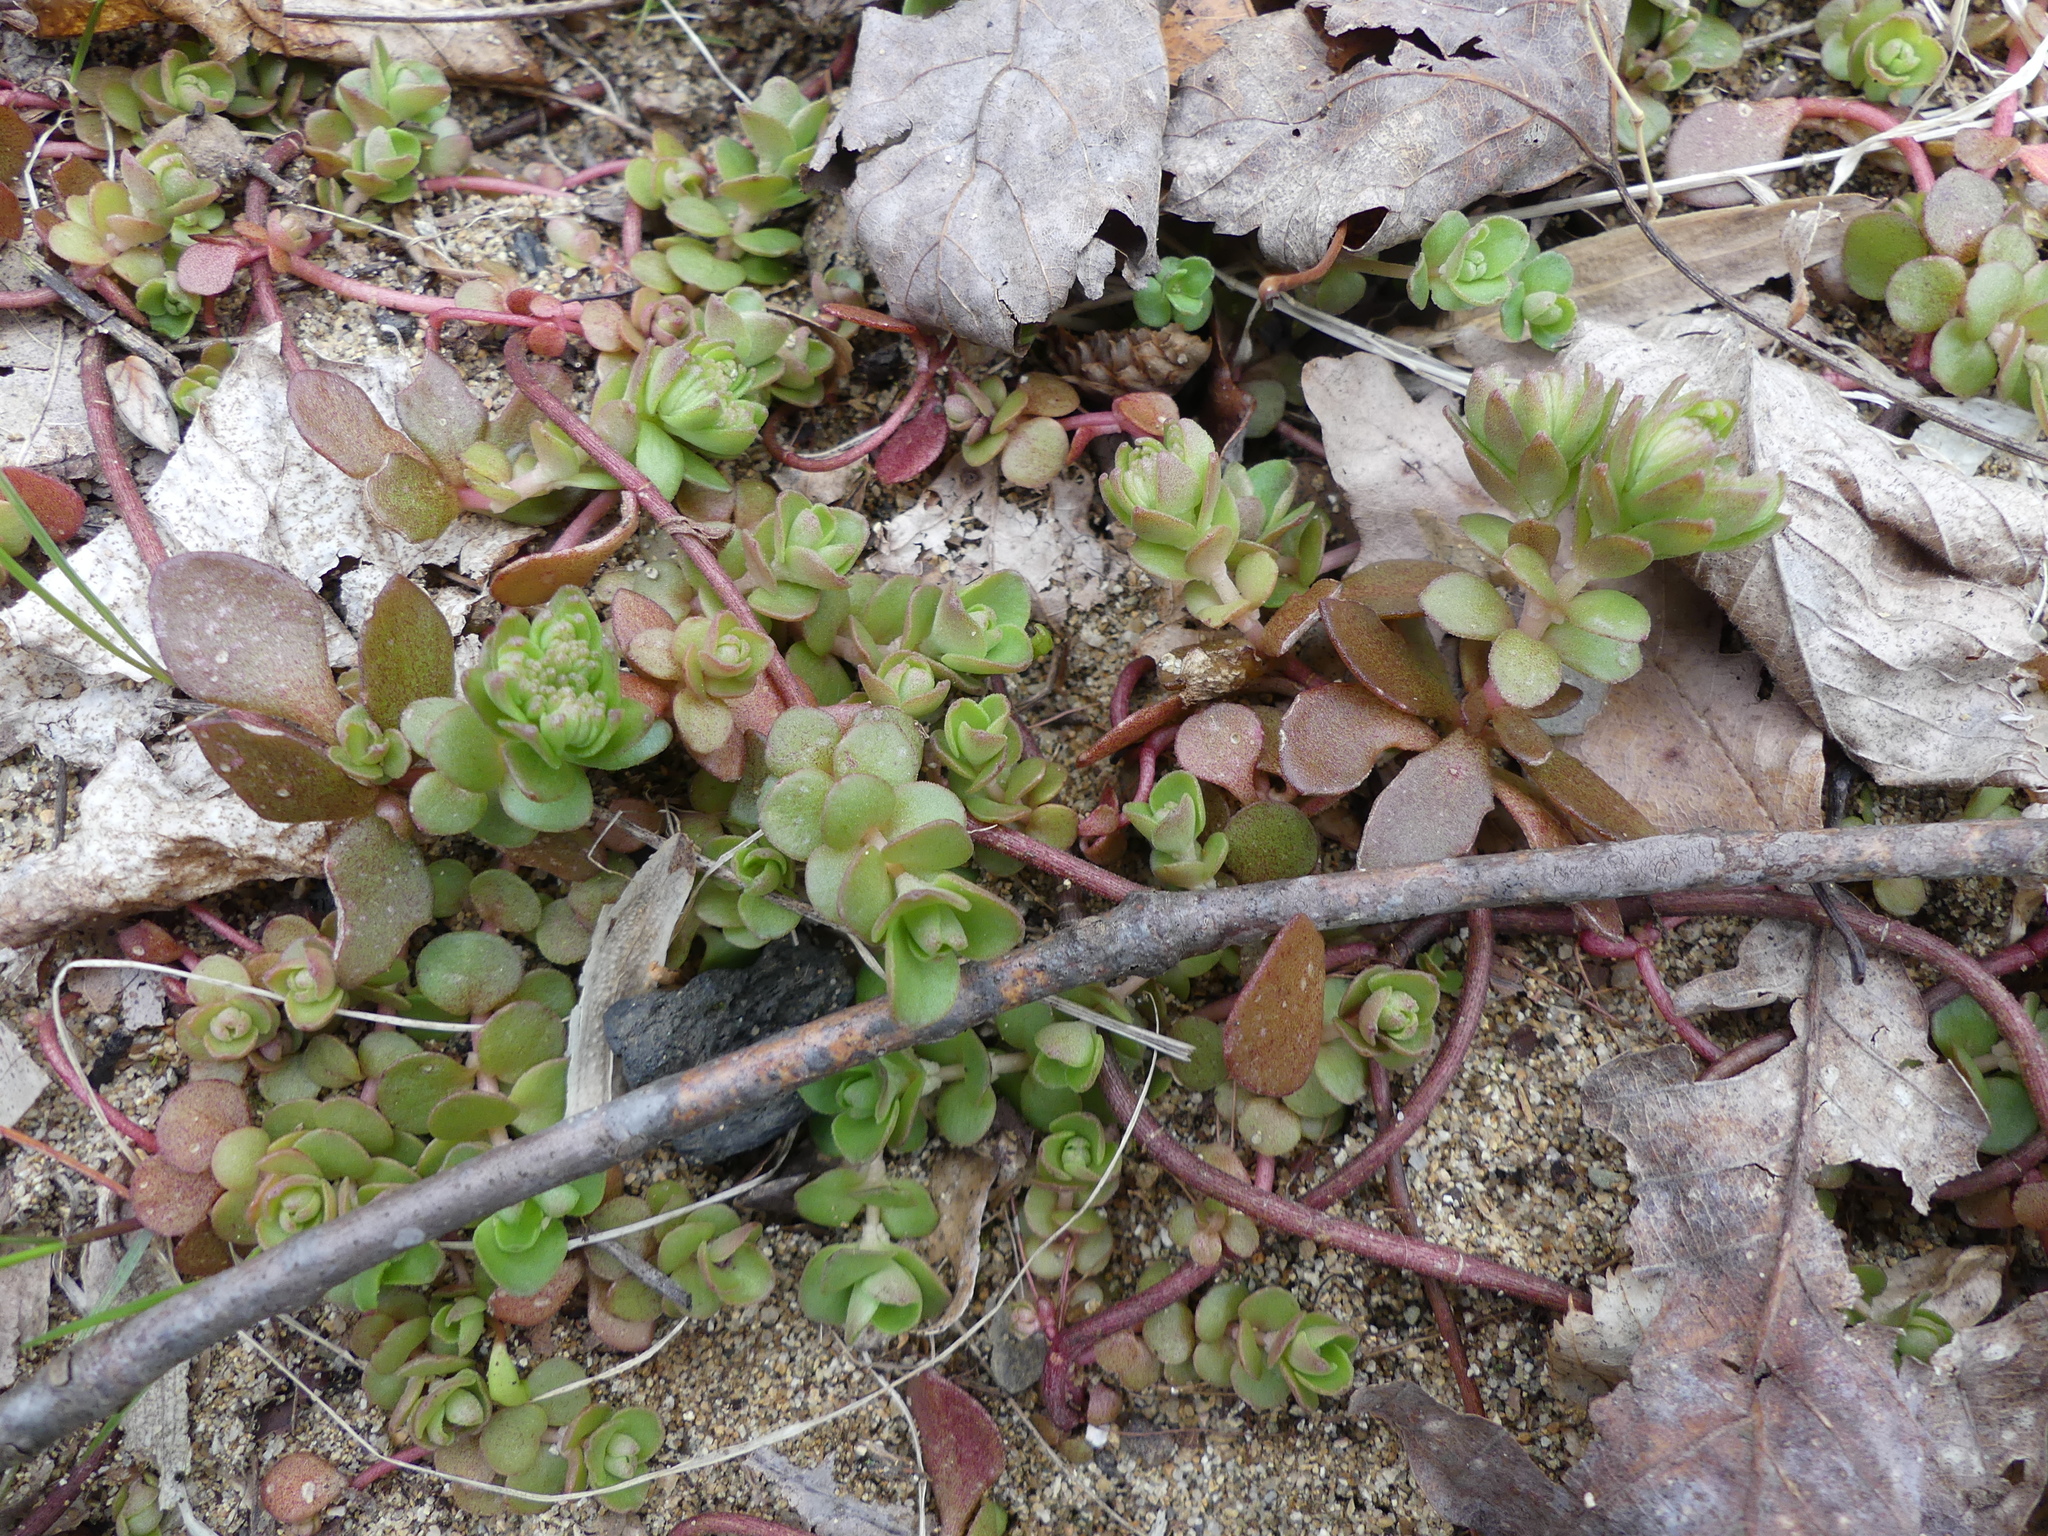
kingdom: Plantae
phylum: Tracheophyta
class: Magnoliopsida
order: Saxifragales
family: Crassulaceae
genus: Sedum
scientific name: Sedum ternatum
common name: Wild stonecrop
